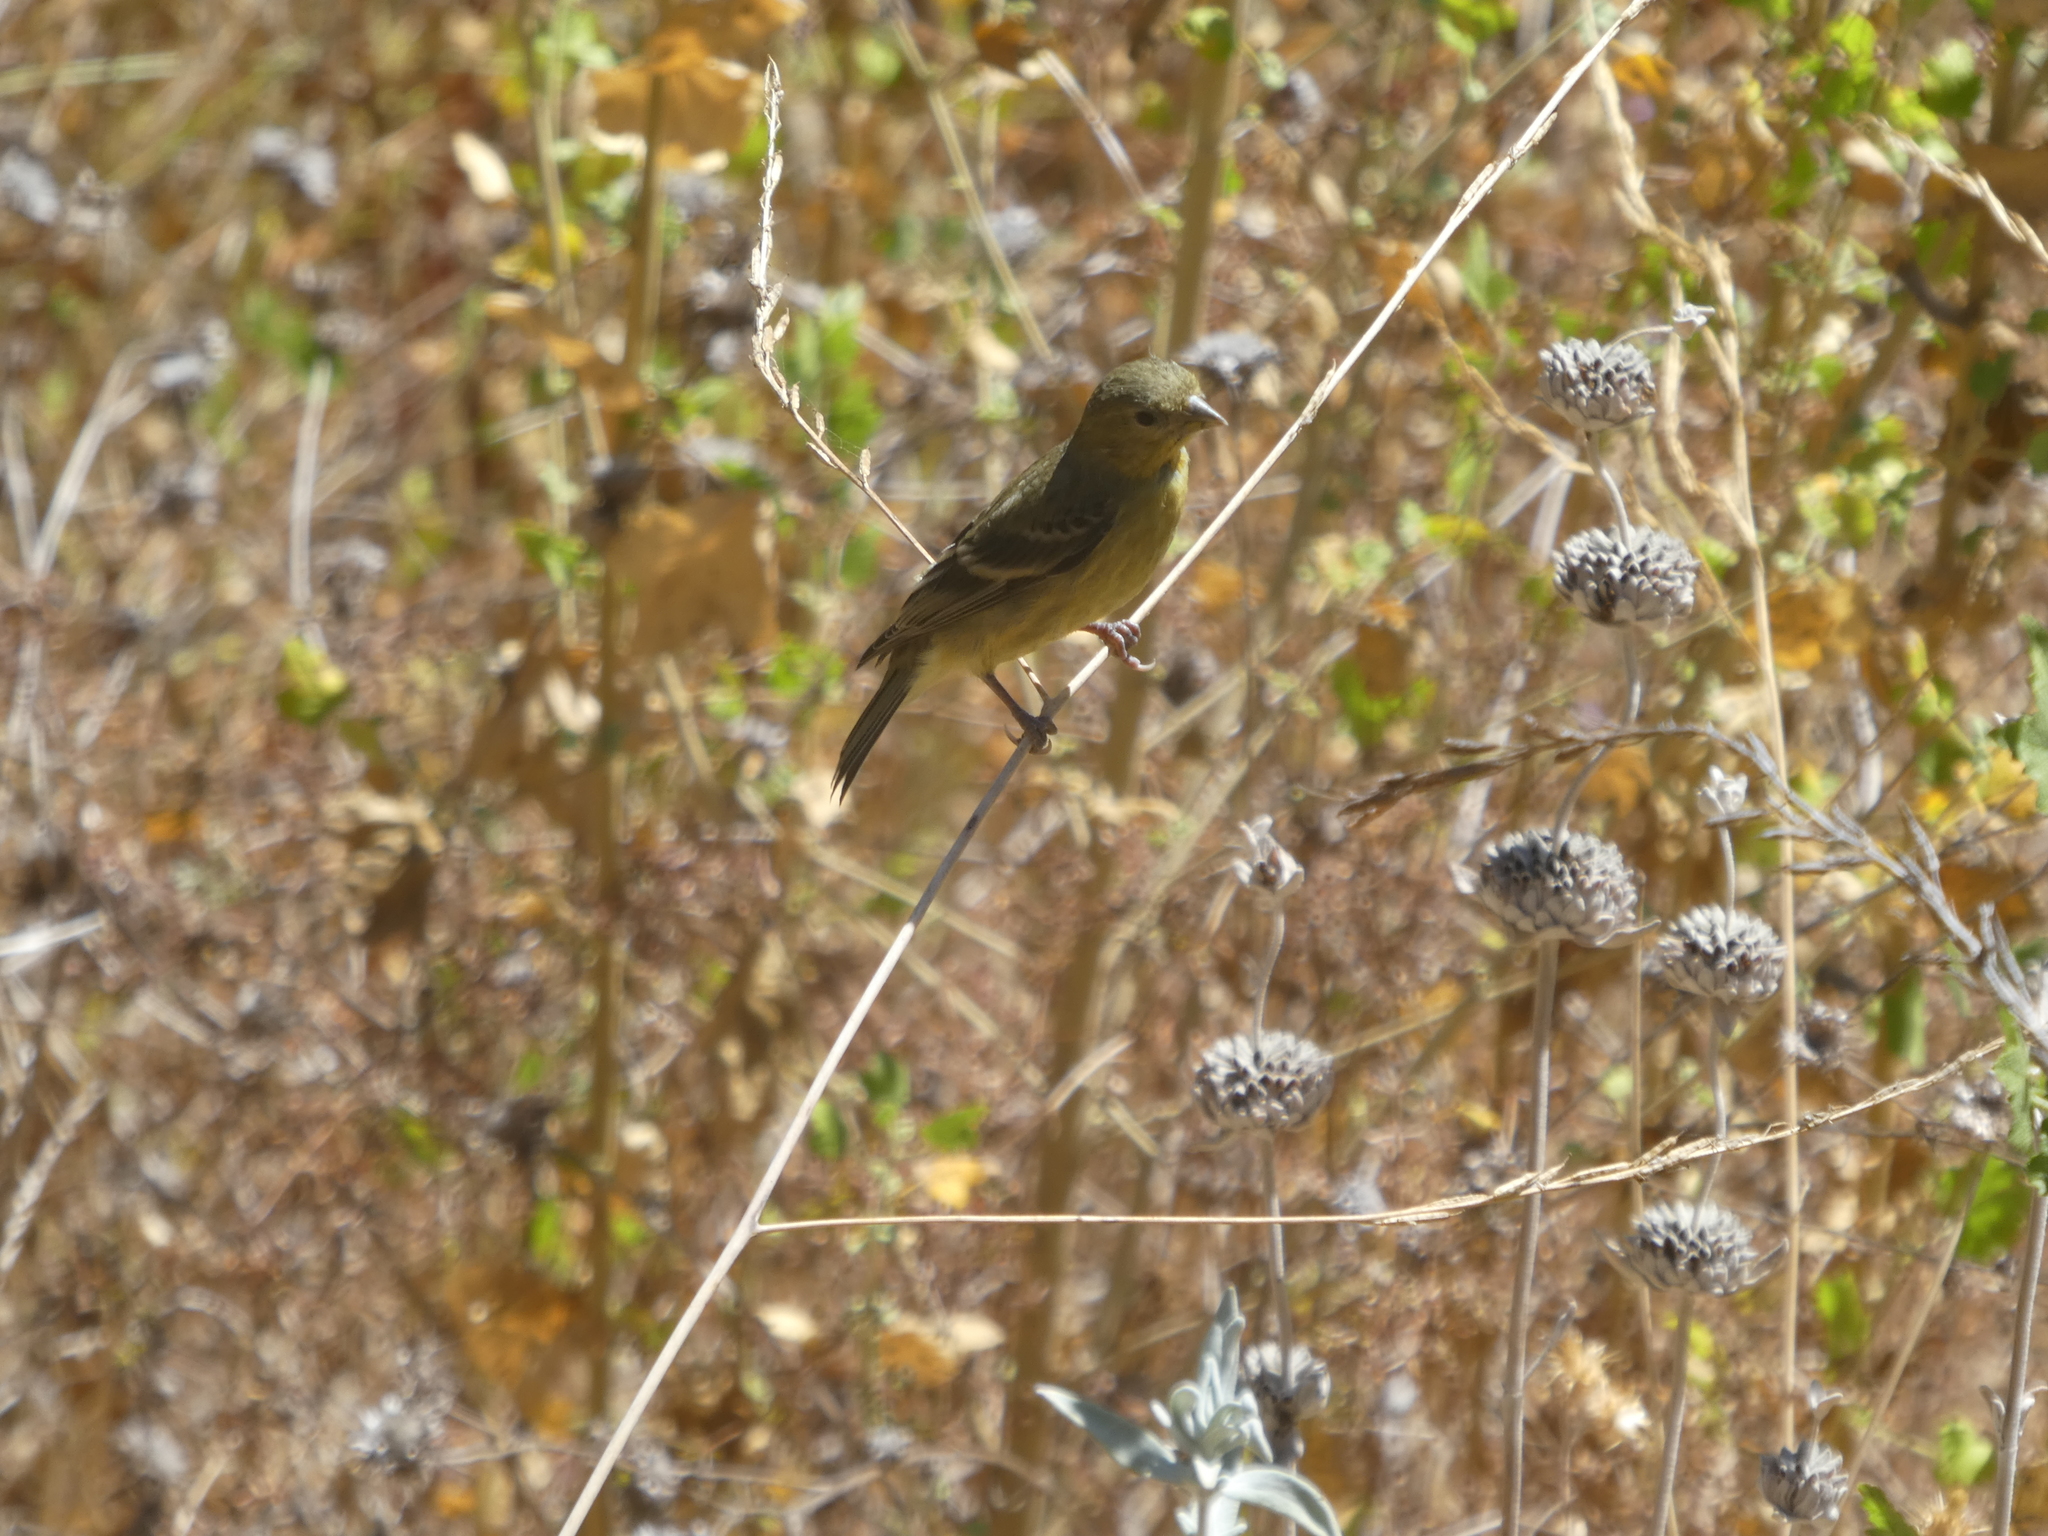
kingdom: Animalia
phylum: Chordata
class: Aves
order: Passeriformes
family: Fringillidae
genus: Spinus
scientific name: Spinus psaltria
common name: Lesser goldfinch
